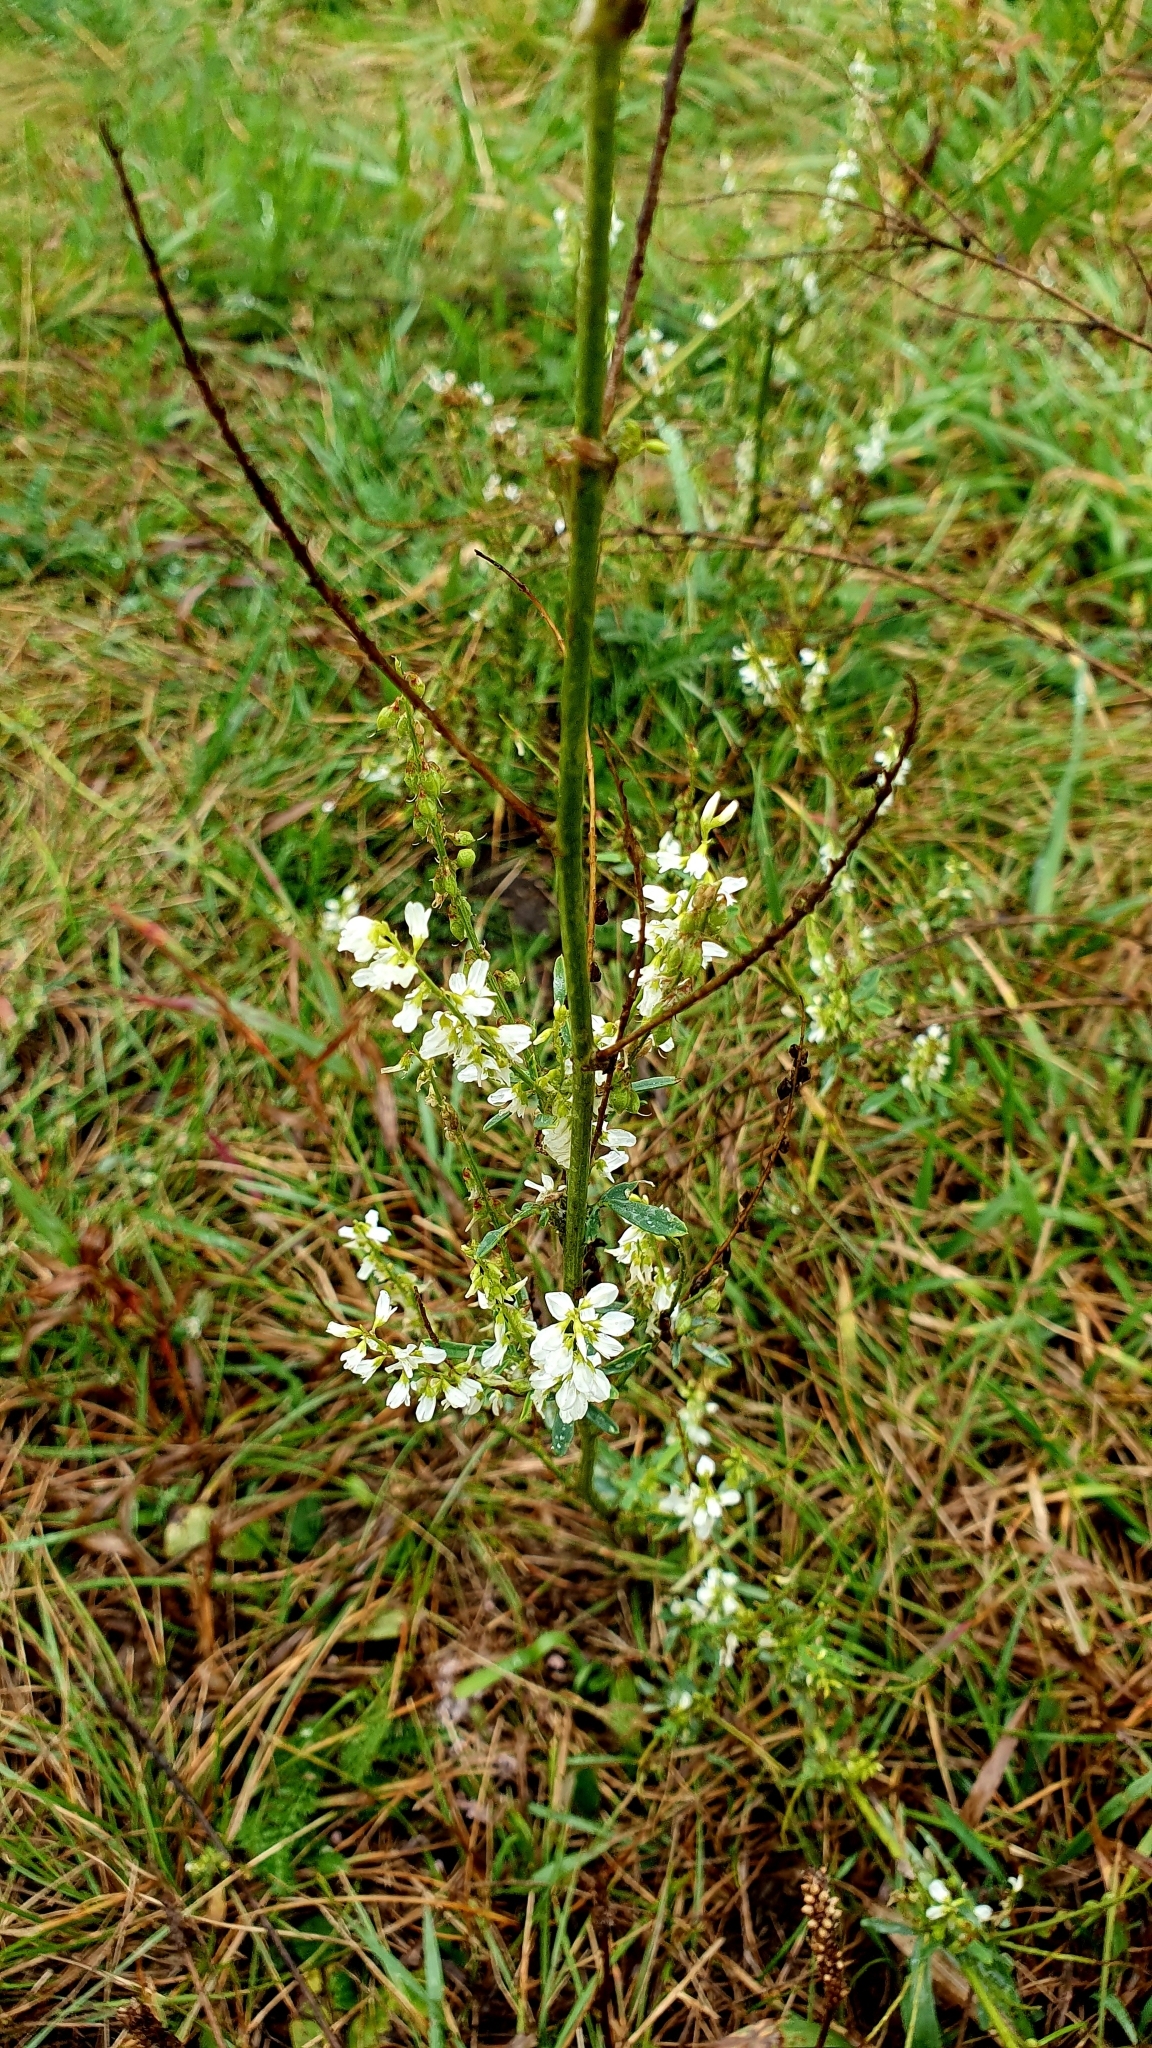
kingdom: Plantae
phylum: Tracheophyta
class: Magnoliopsida
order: Fabales
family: Fabaceae
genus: Melilotus
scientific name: Melilotus albus
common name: White melilot
